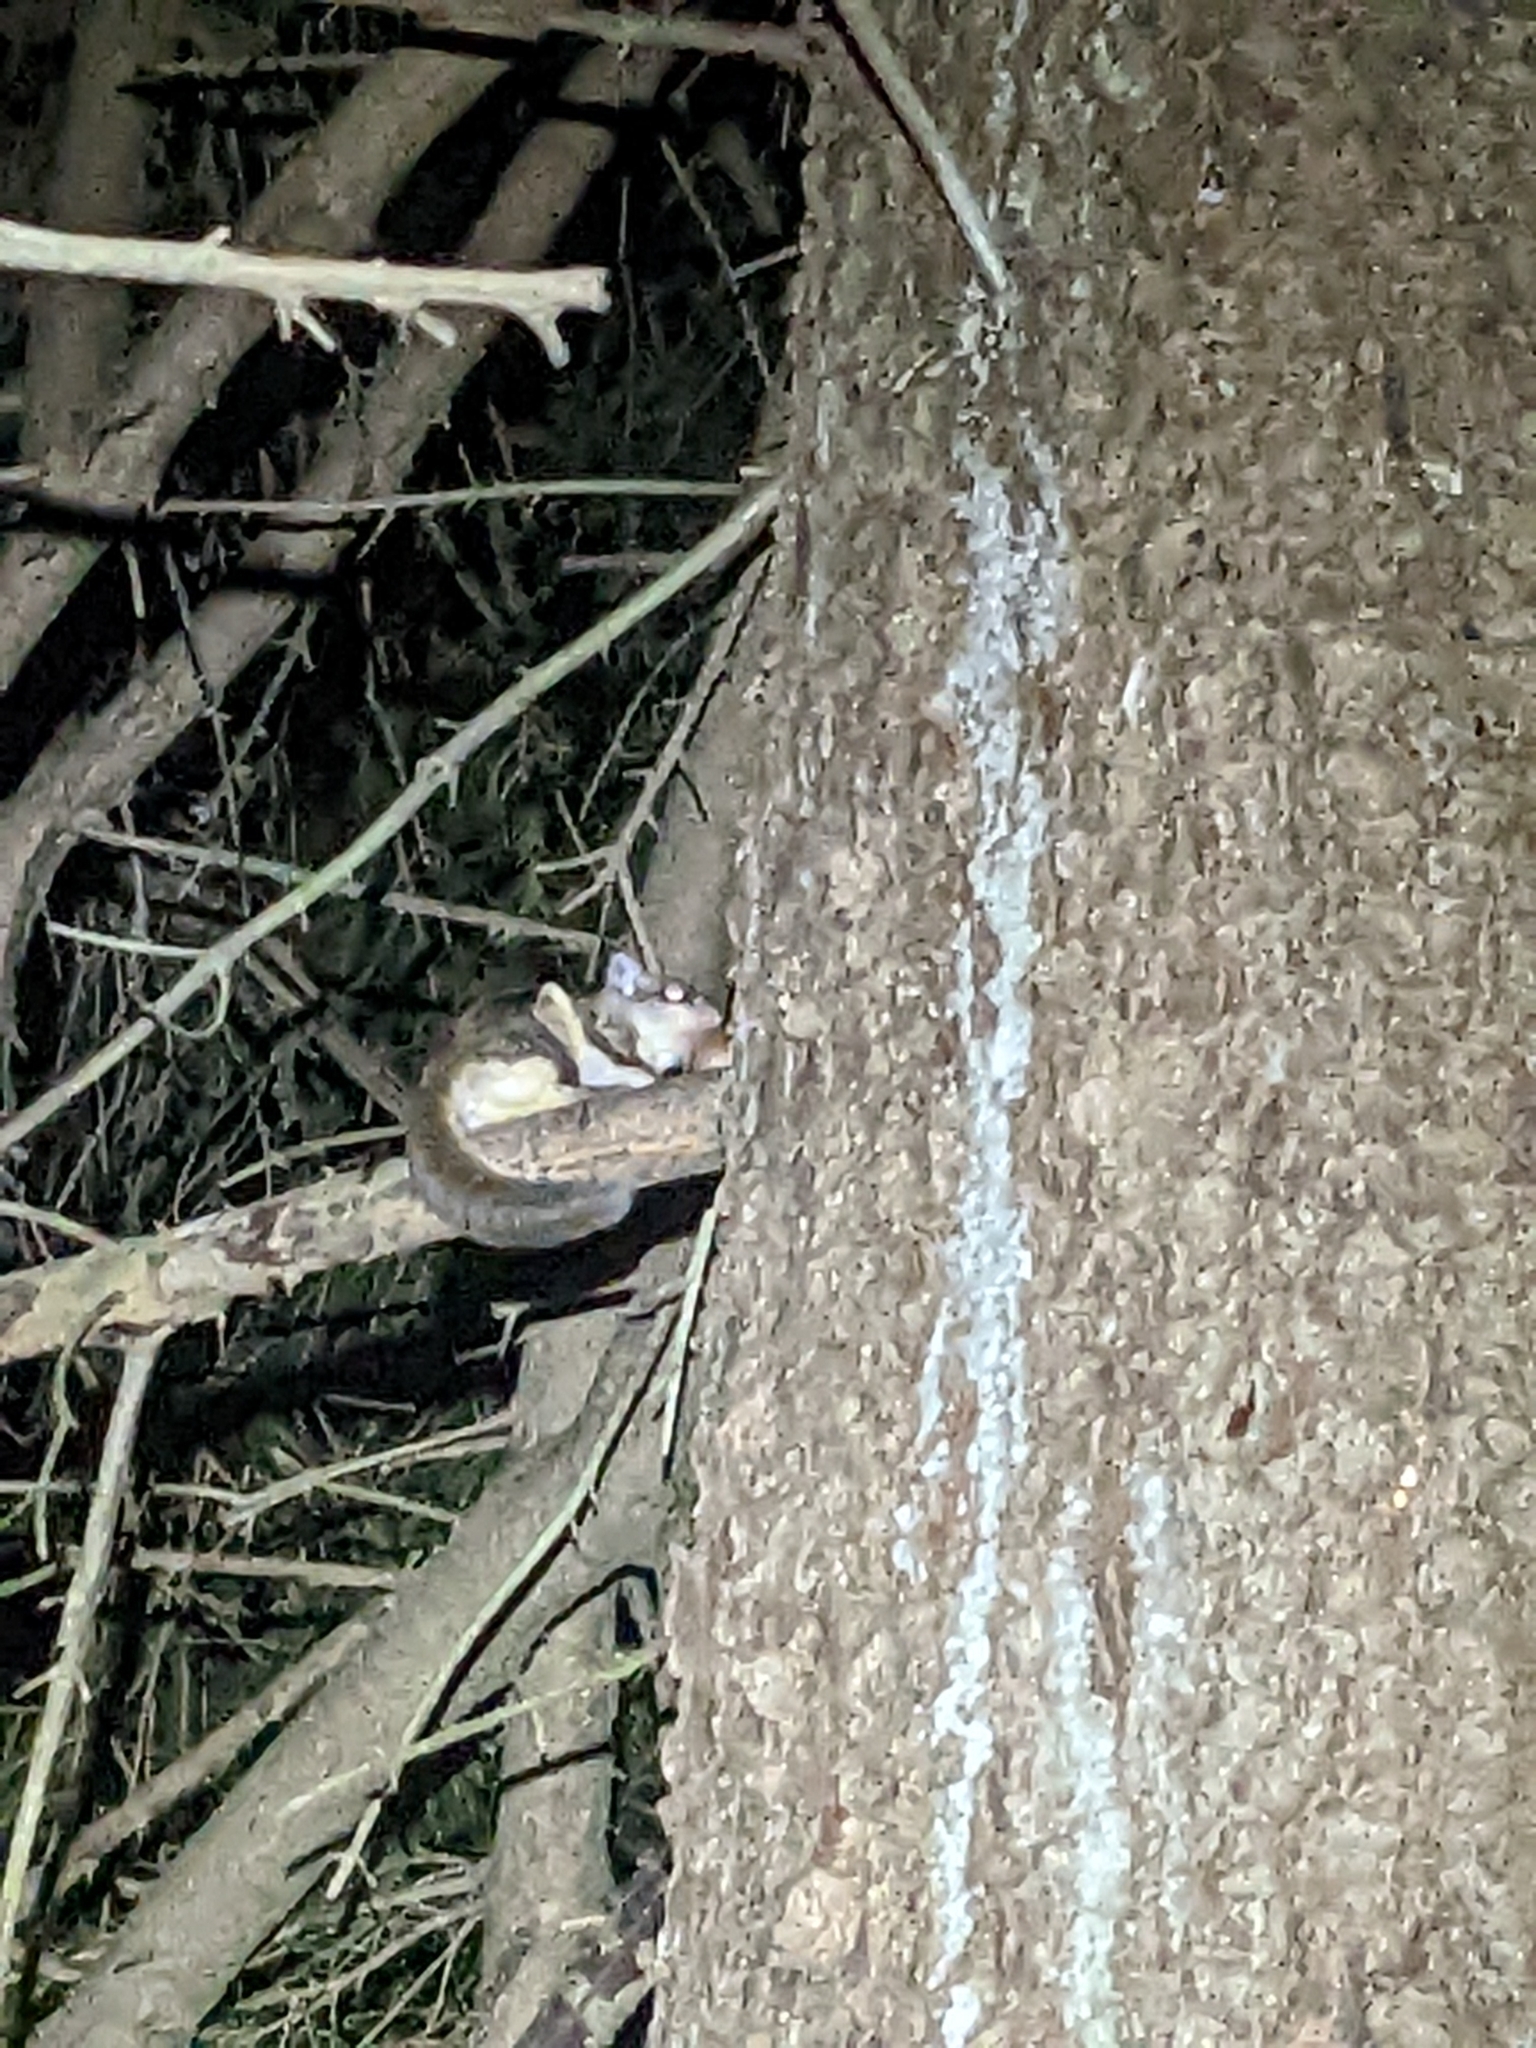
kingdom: Animalia
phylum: Chordata
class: Mammalia
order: Rodentia
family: Sciuridae
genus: Glaucomys
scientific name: Glaucomys volans
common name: Southern flying squirrel
